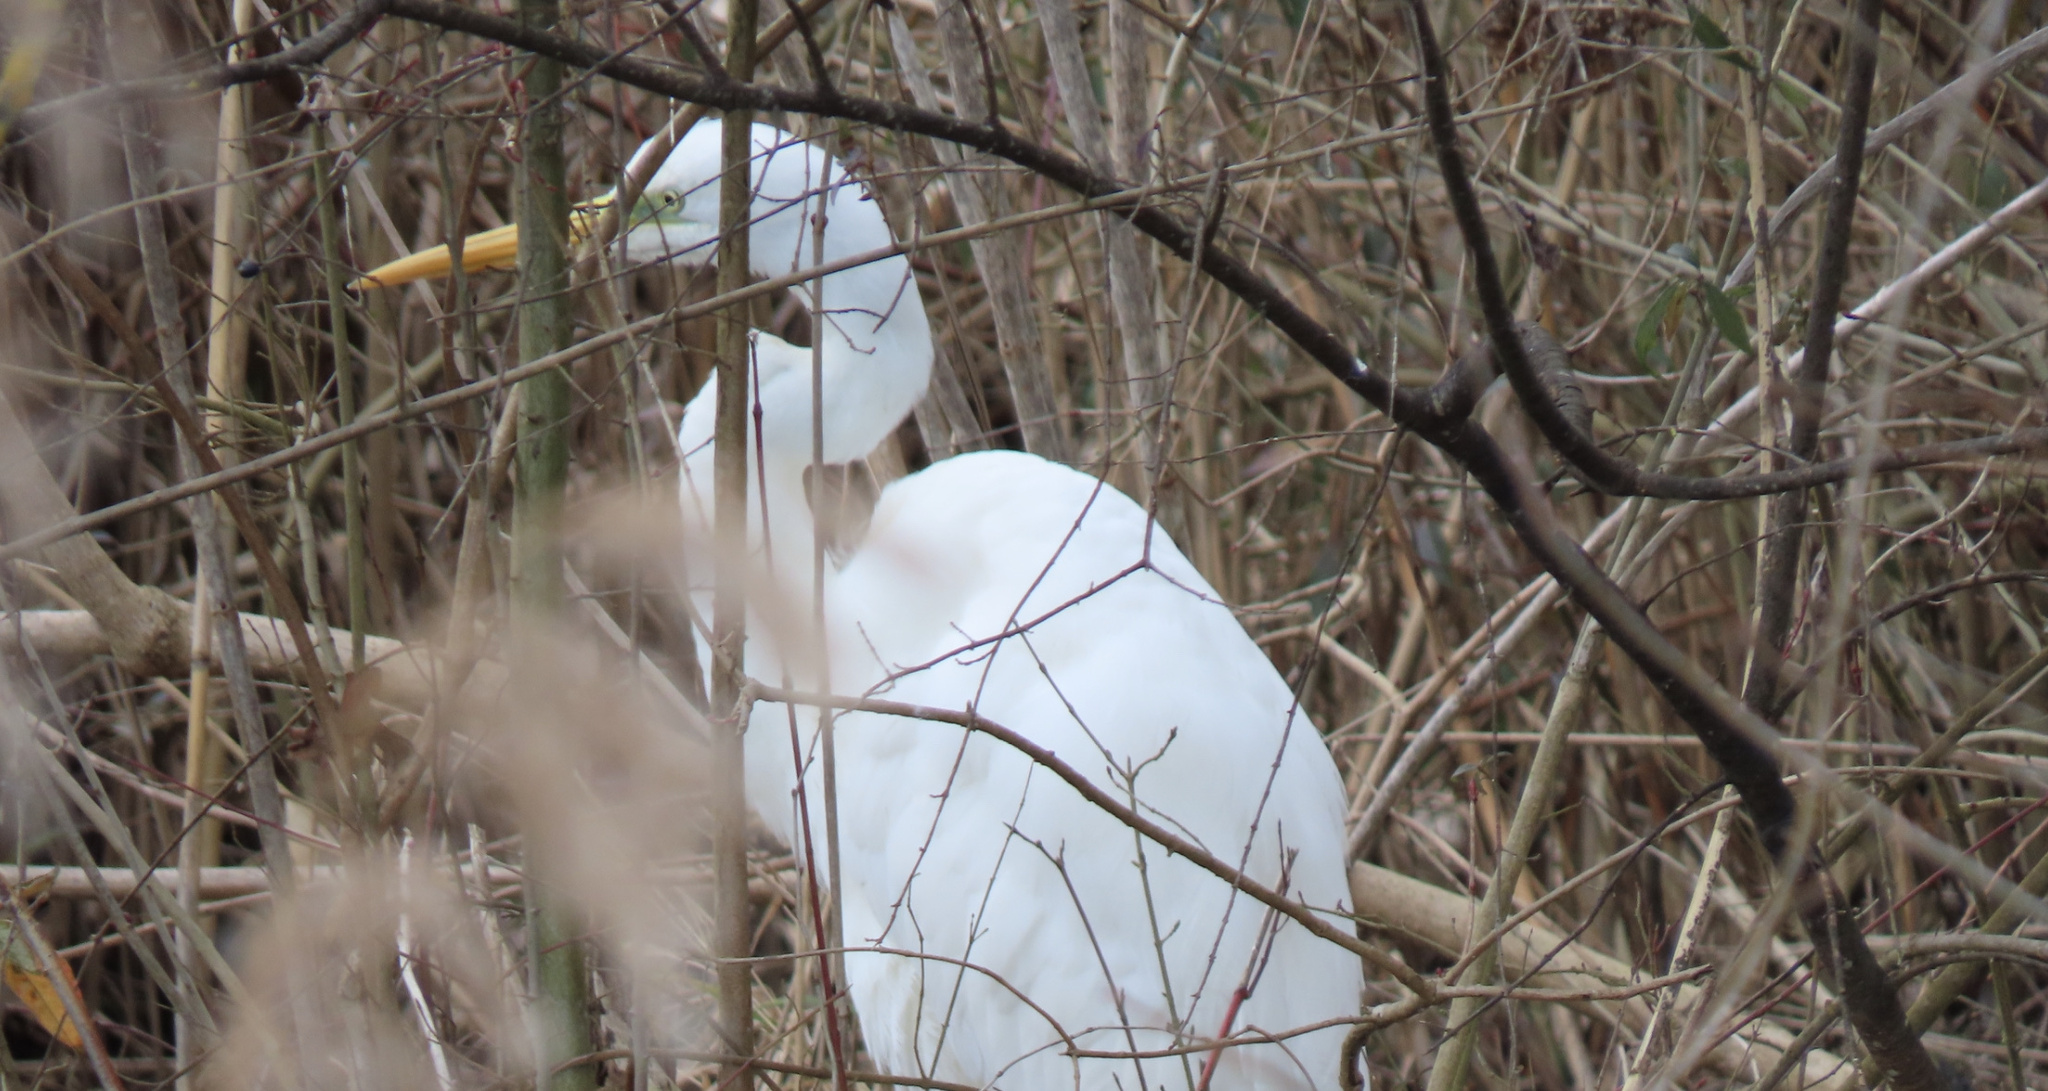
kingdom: Animalia
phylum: Chordata
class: Aves
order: Pelecaniformes
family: Ardeidae
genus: Ardea
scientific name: Ardea alba
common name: Great egret
